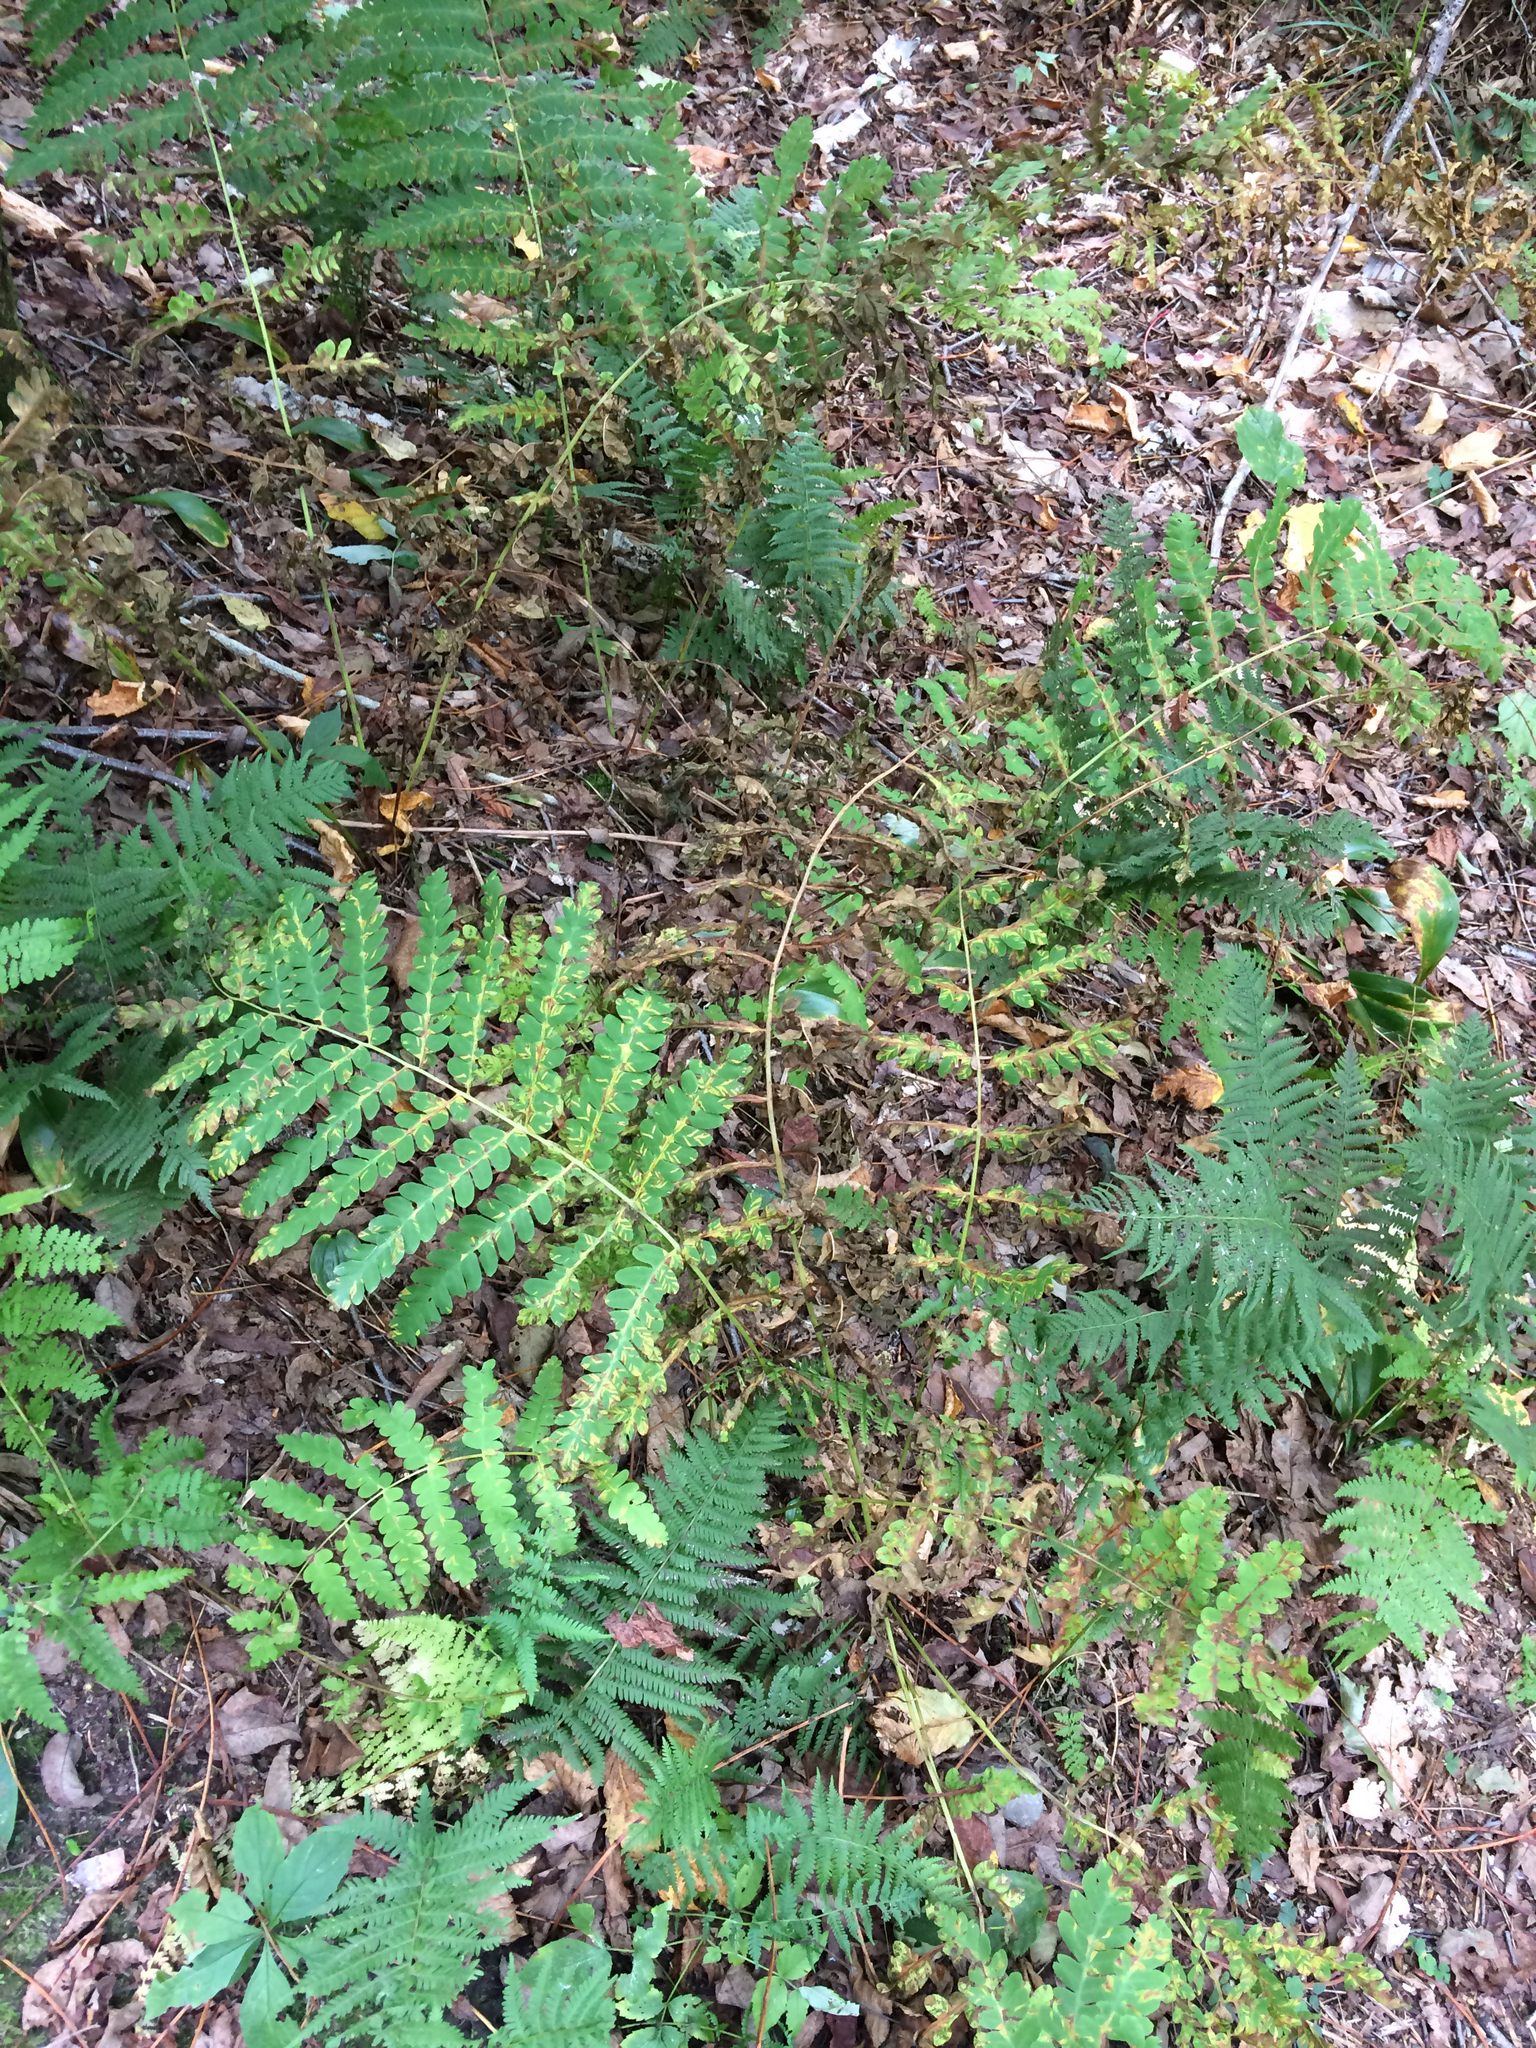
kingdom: Plantae
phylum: Tracheophyta
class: Polypodiopsida
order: Osmundales
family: Osmundaceae
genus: Claytosmunda
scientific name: Claytosmunda claytoniana
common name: Clayton's fern
